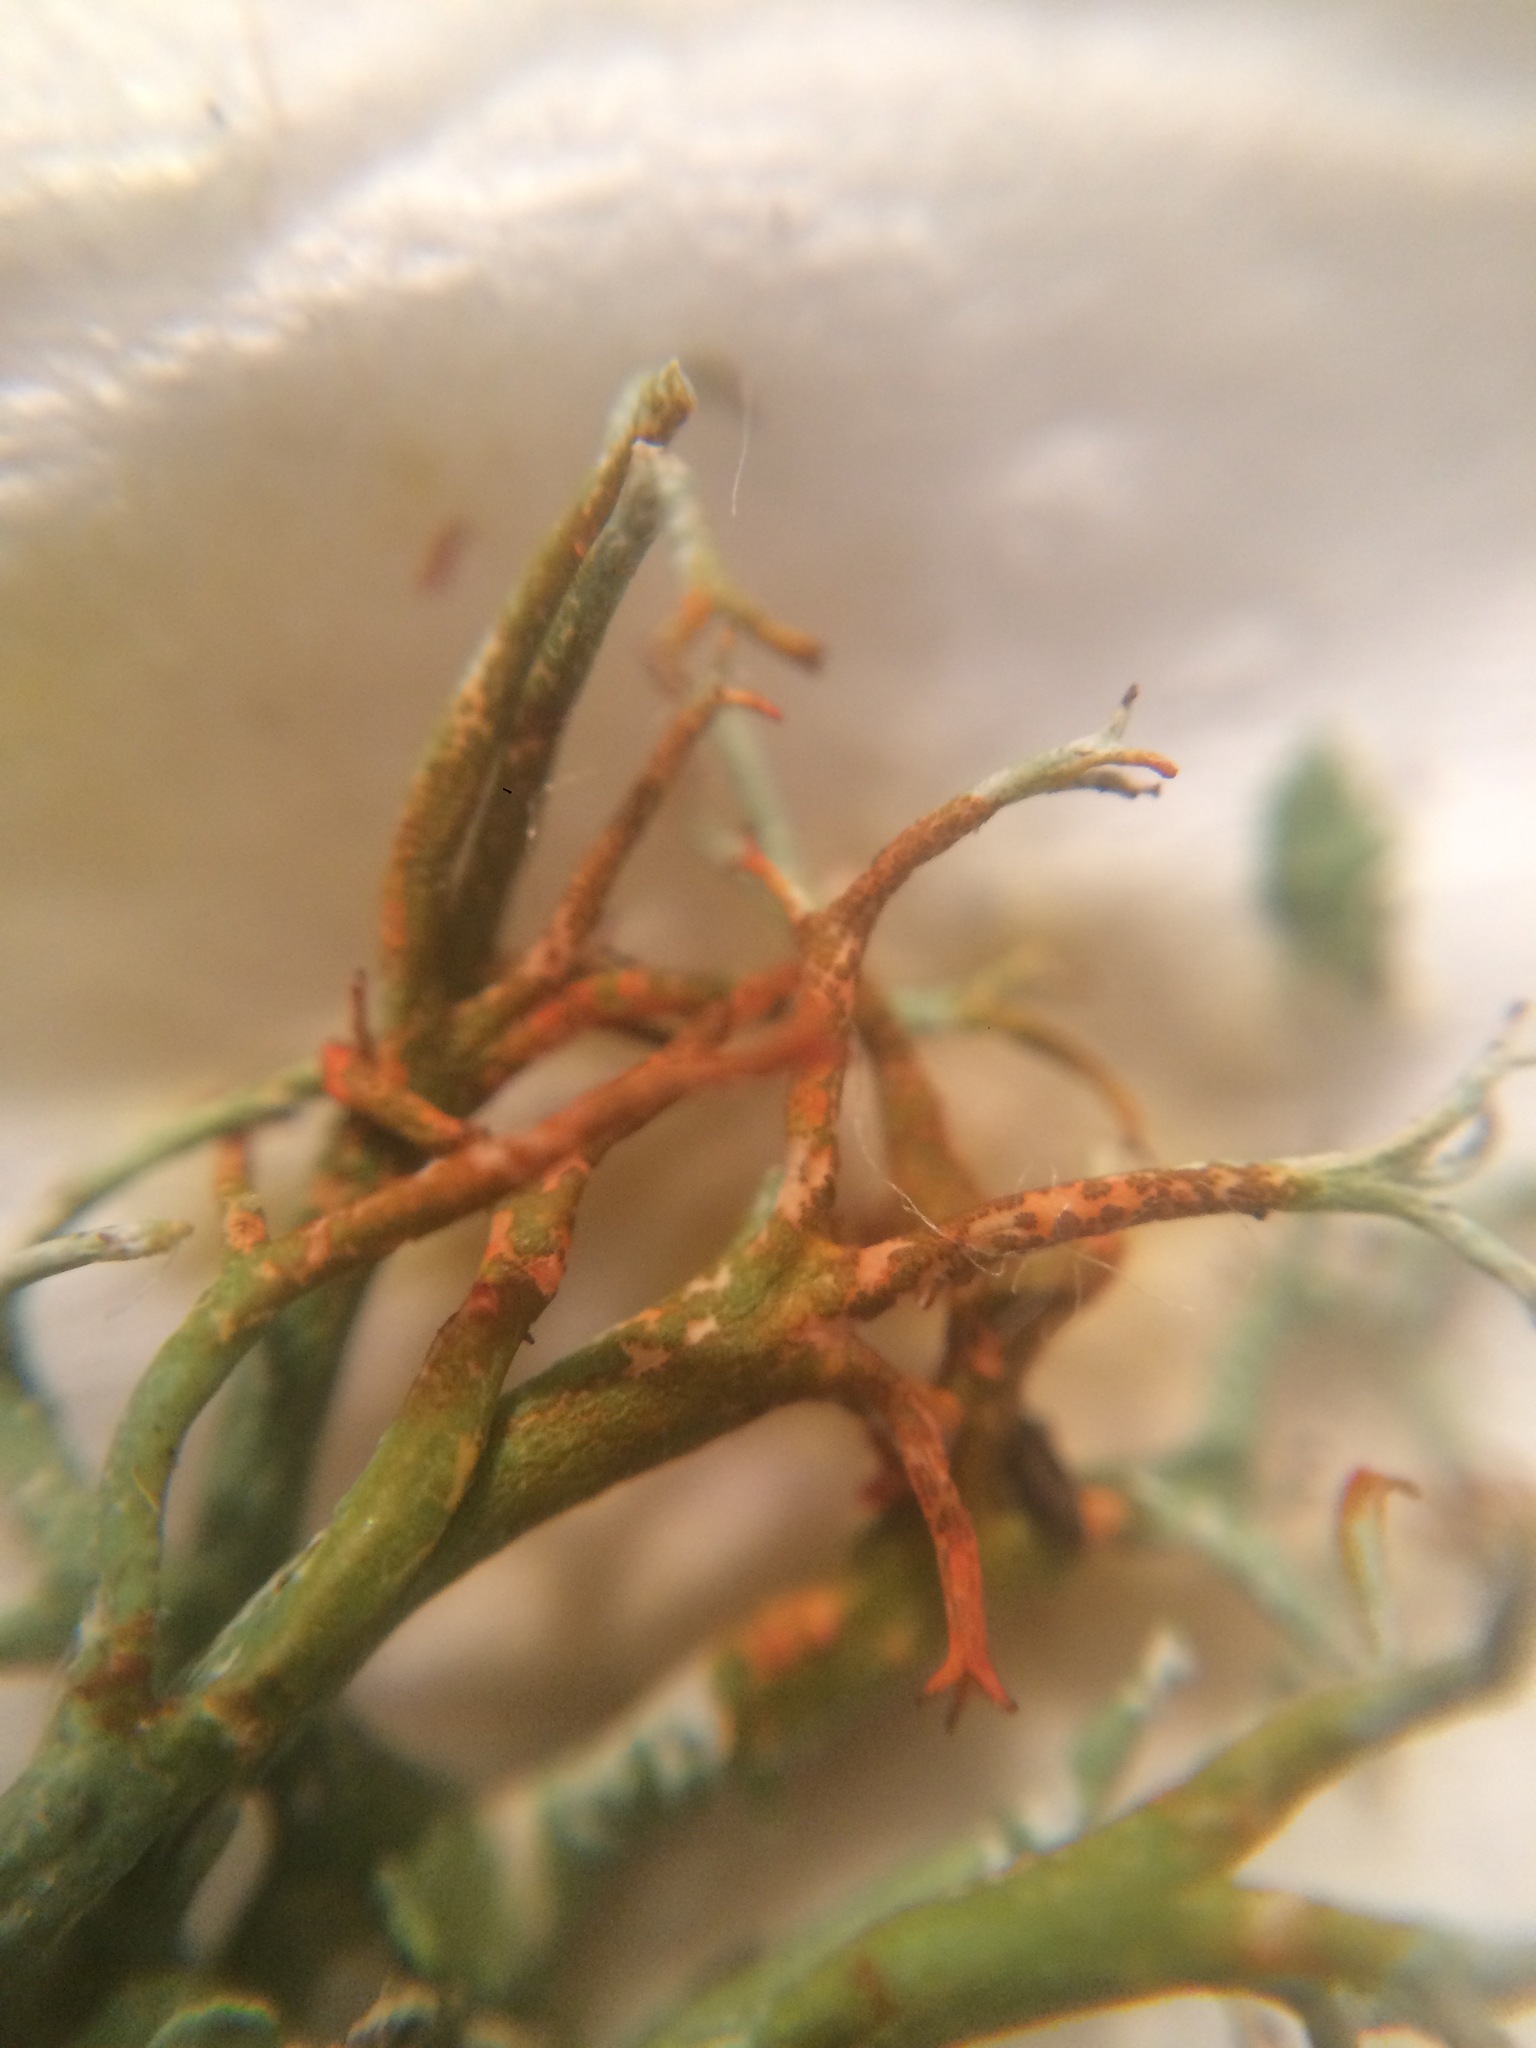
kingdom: Fungi
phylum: Ascomycota
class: Lecanoromycetes
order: Lecanorales
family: Cladoniaceae
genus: Cladonia
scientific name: Cladonia furcata
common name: Many-forked cladonia
